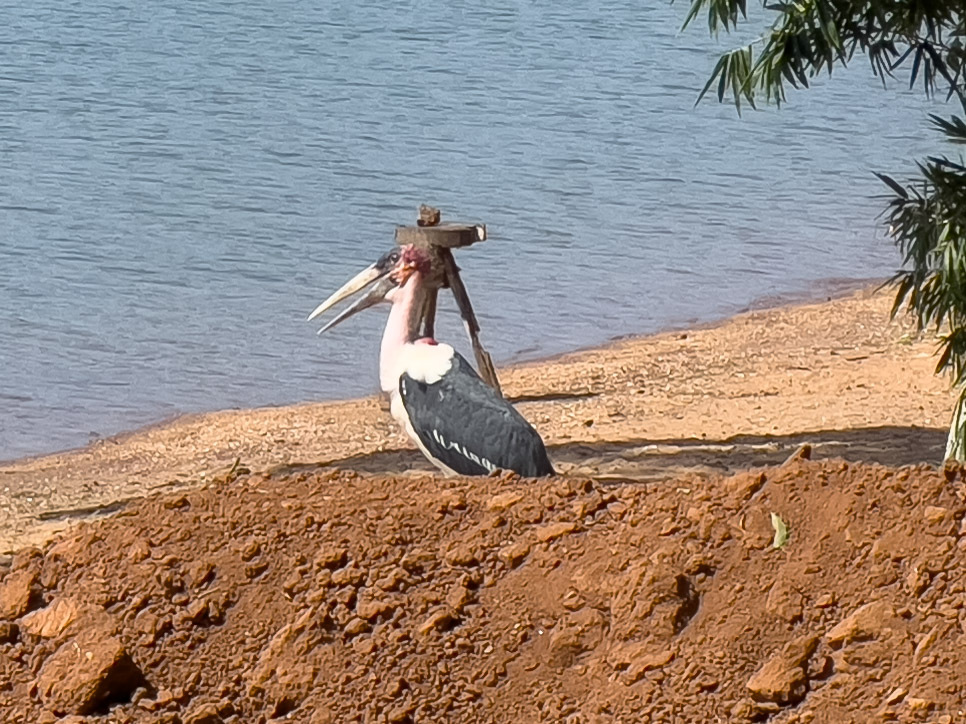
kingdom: Animalia
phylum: Chordata
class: Aves
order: Ciconiiformes
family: Ciconiidae
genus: Leptoptilos
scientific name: Leptoptilos crumenifer
